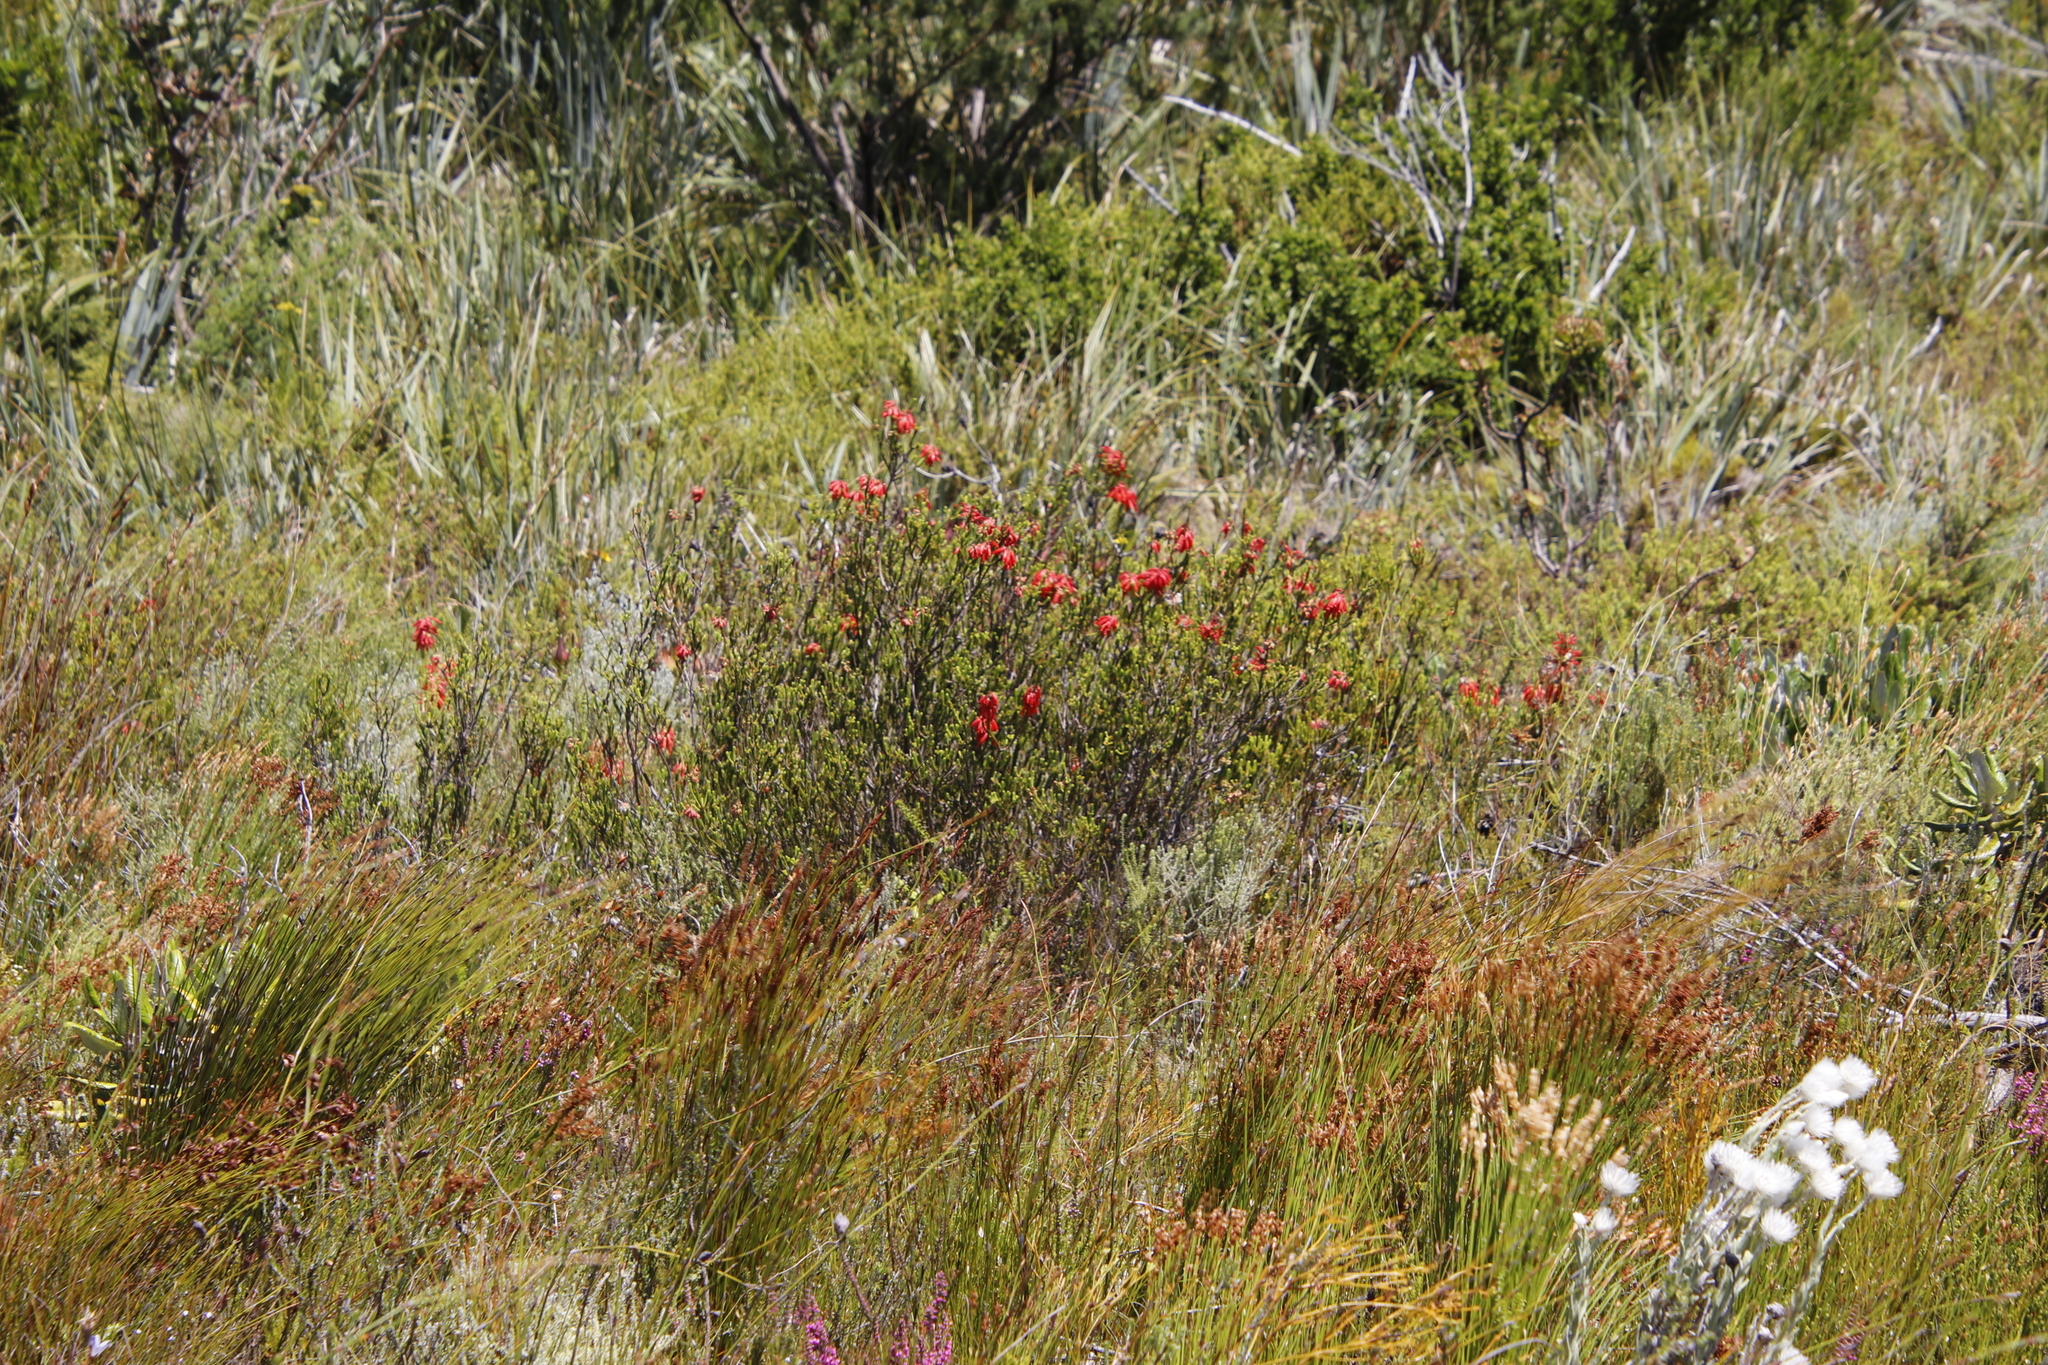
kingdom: Plantae
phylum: Tracheophyta
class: Magnoliopsida
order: Ericales
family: Ericaceae
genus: Erica
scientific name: Erica mammosa
